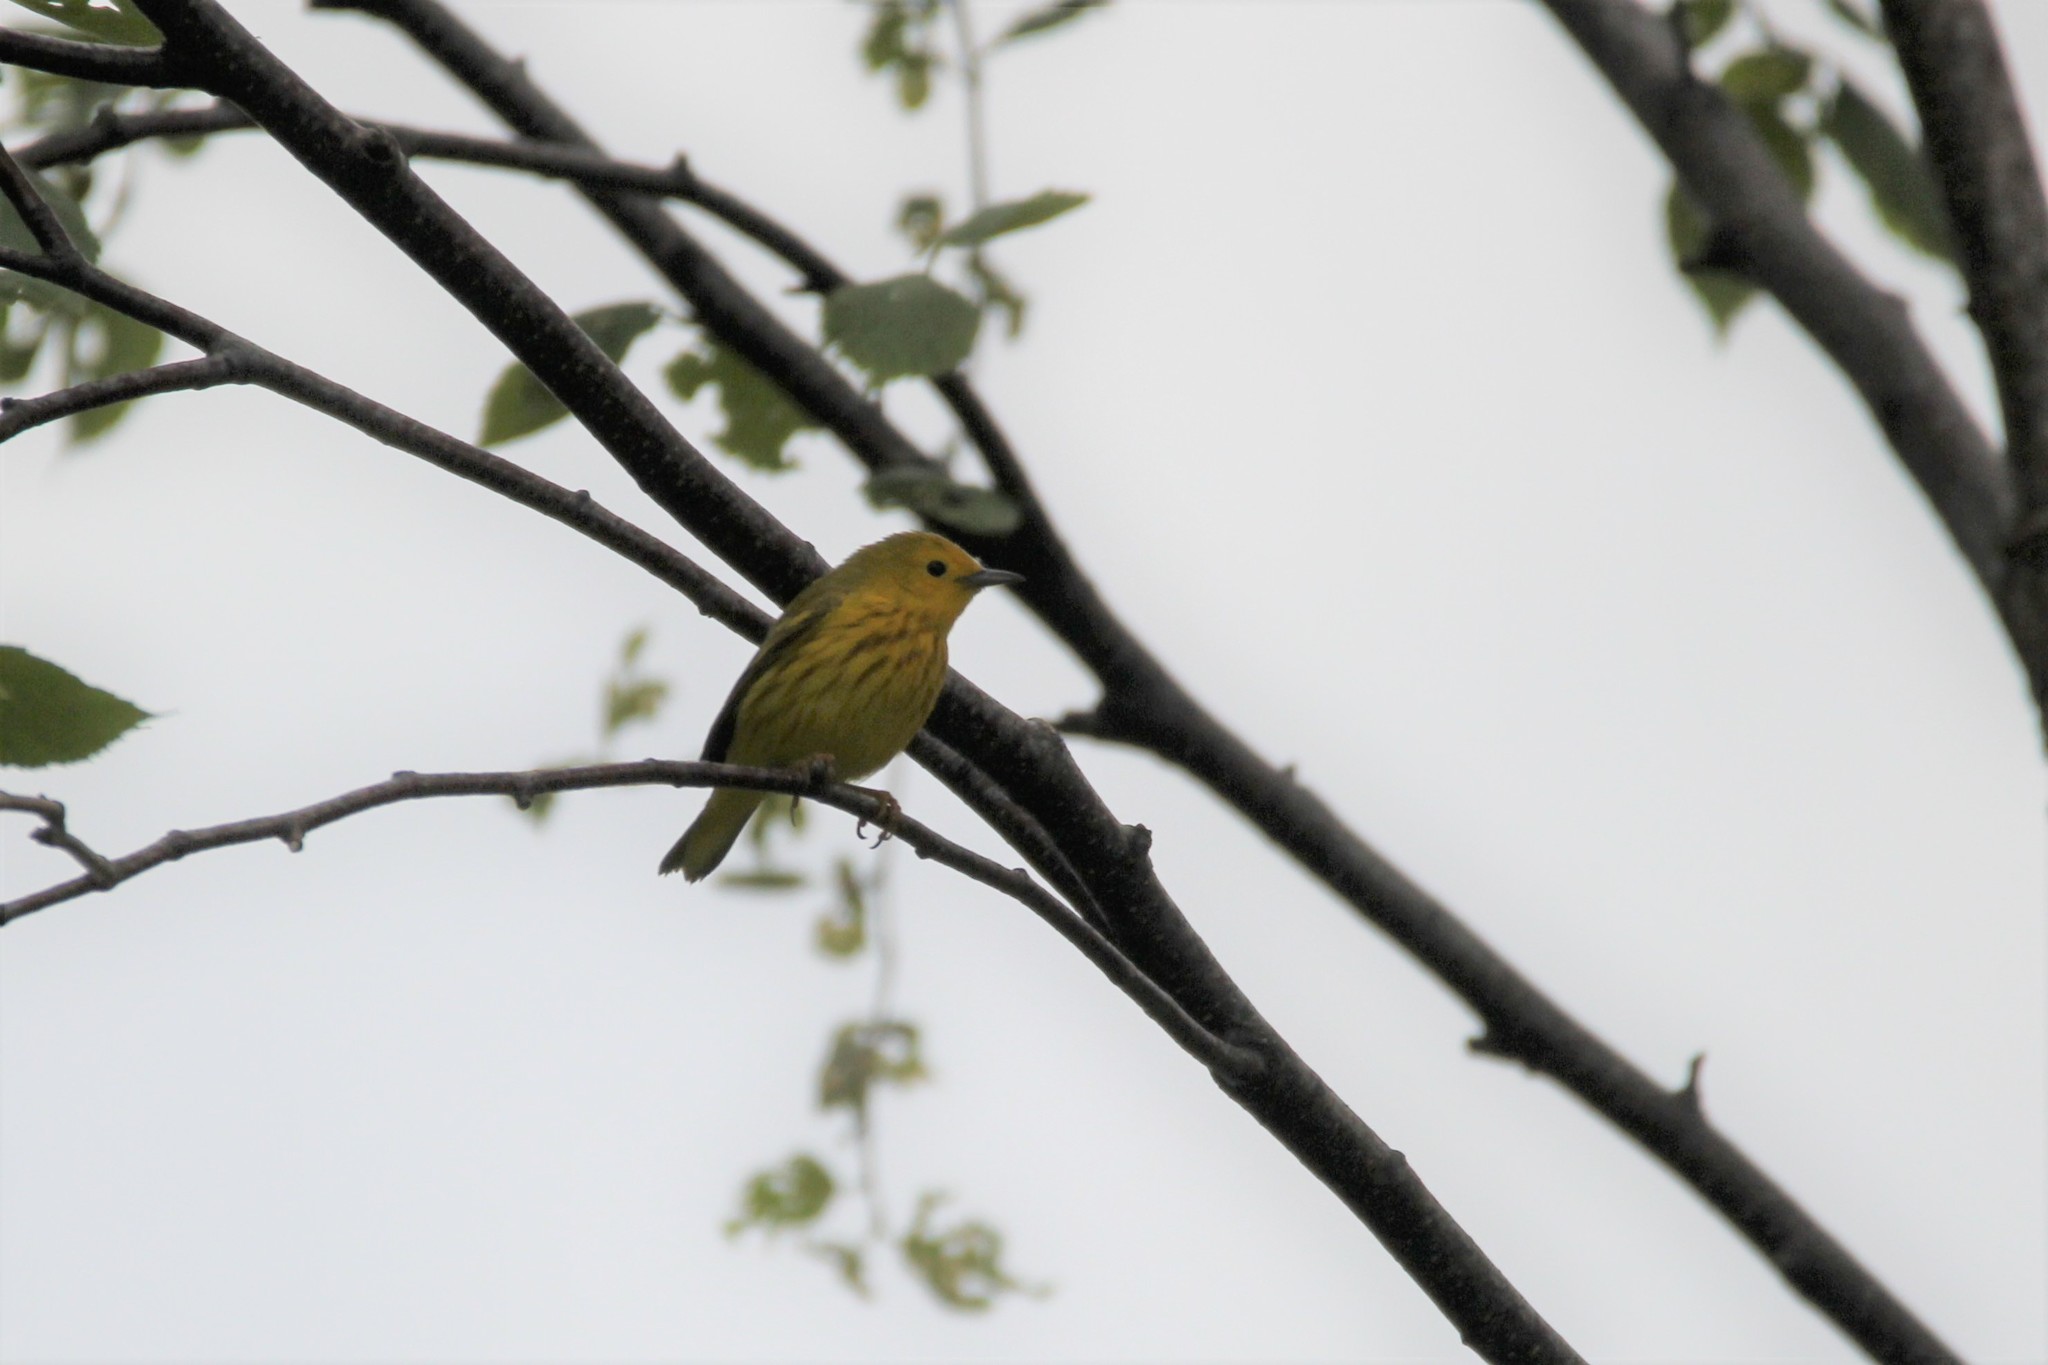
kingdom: Animalia
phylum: Chordata
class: Aves
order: Passeriformes
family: Parulidae
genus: Setophaga
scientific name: Setophaga petechia
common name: Yellow warbler
